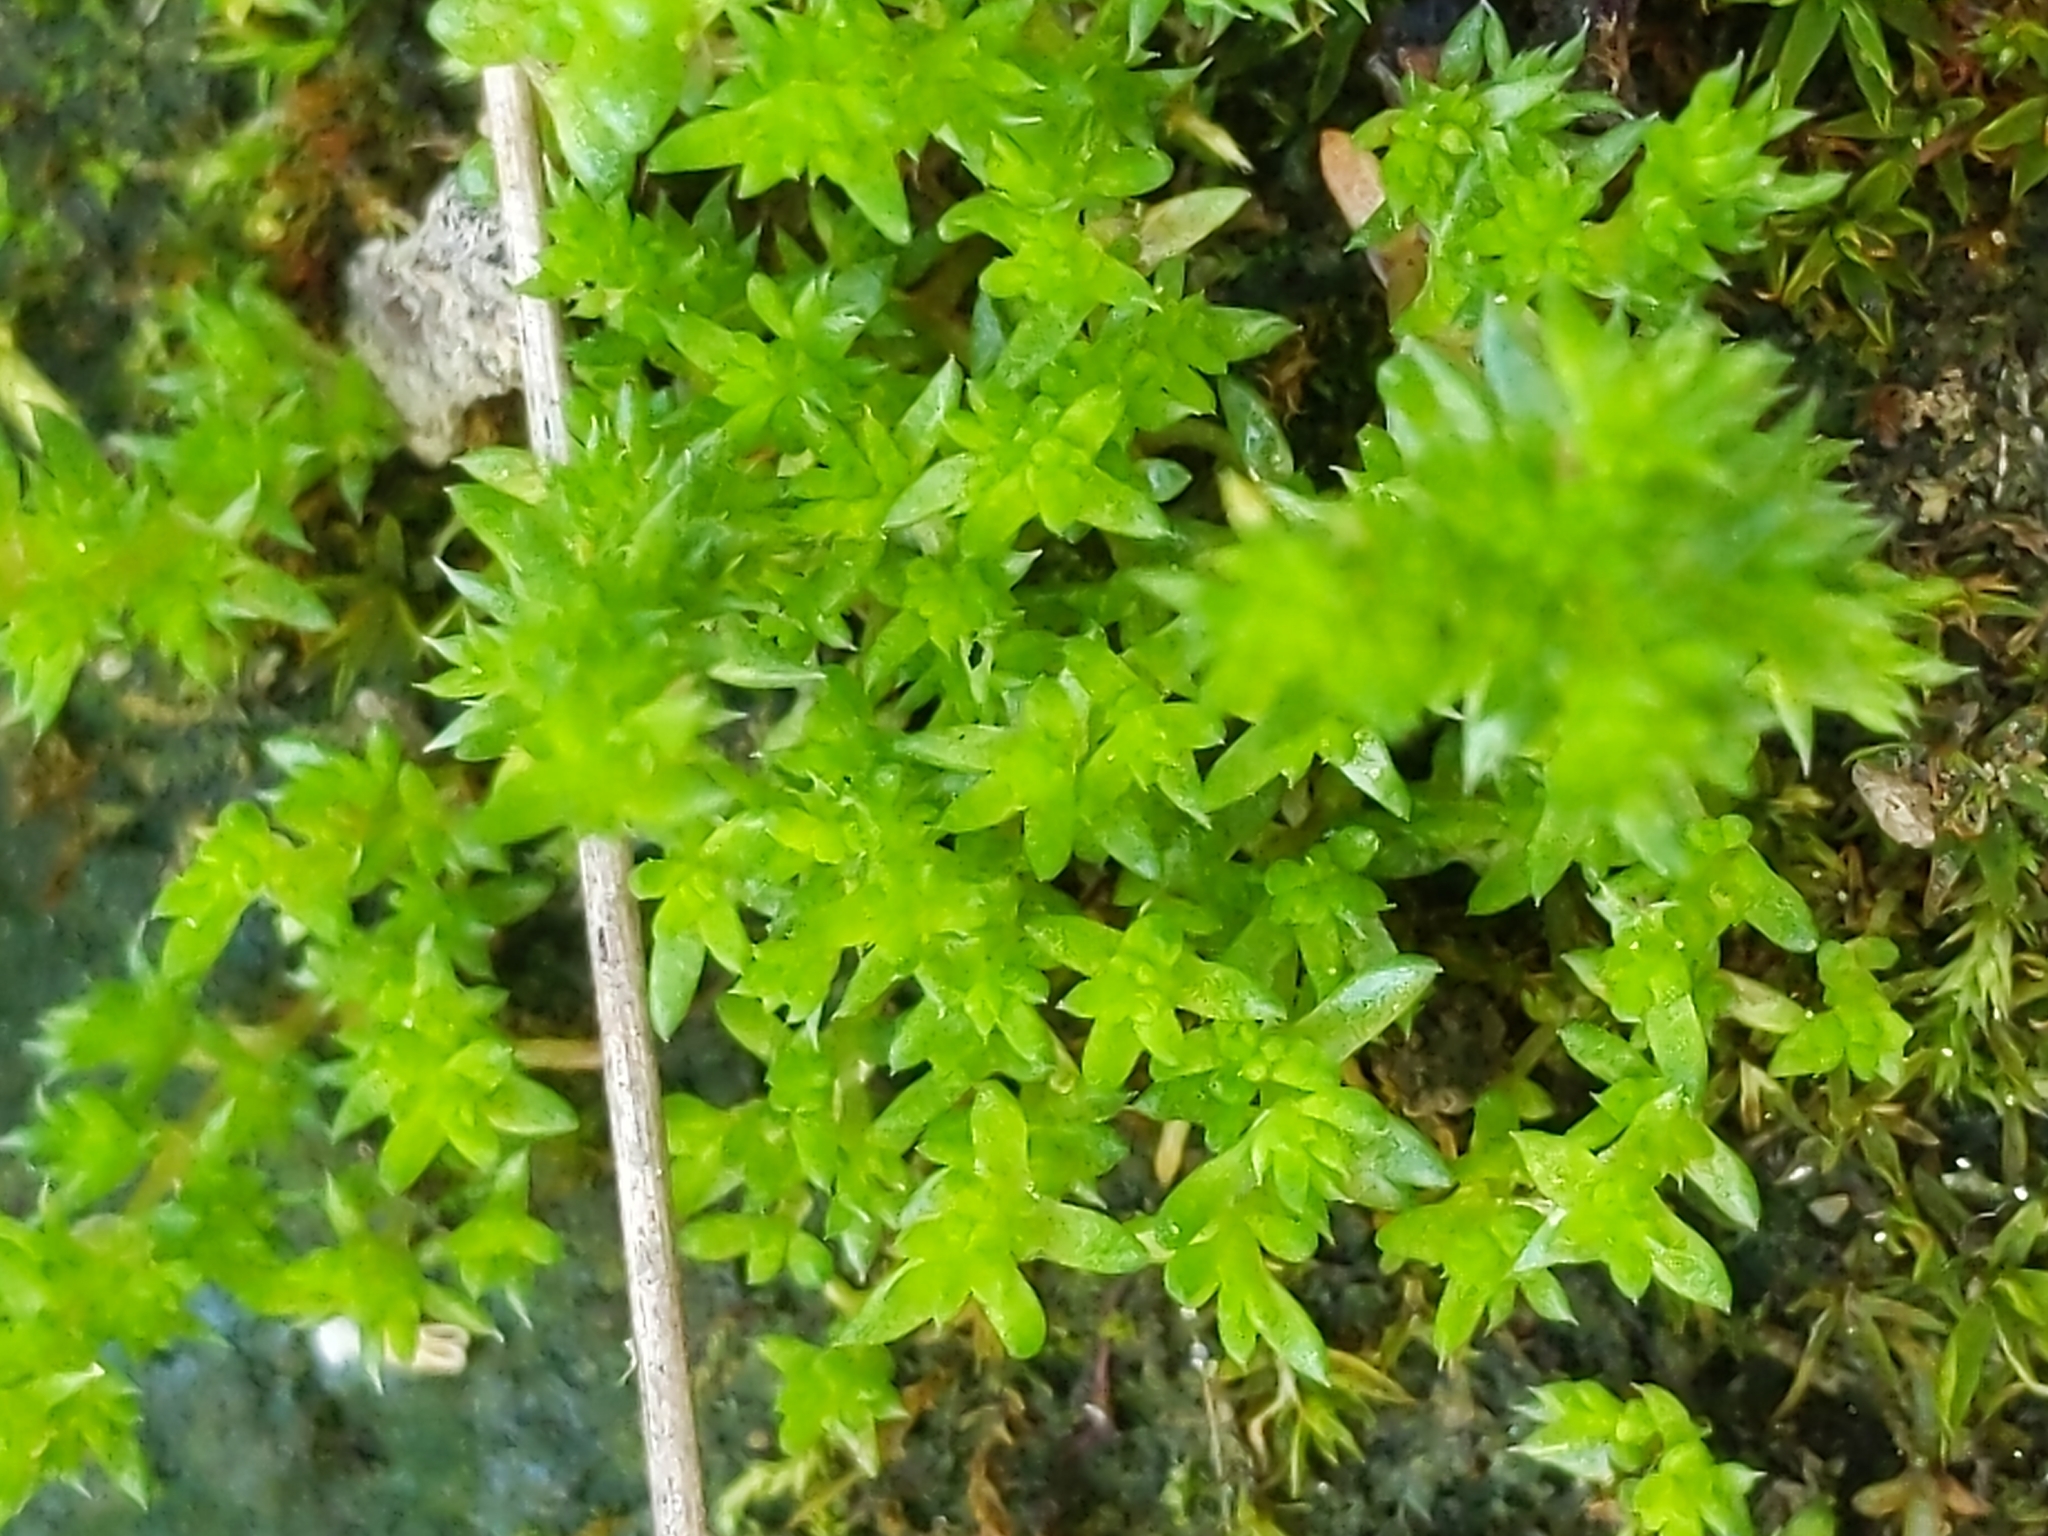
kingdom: Plantae
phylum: Tracheophyta
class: Magnoliopsida
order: Saxifragales
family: Crassulaceae
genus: Crassula
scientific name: Crassula tillaea
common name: Mossy stonecrop
